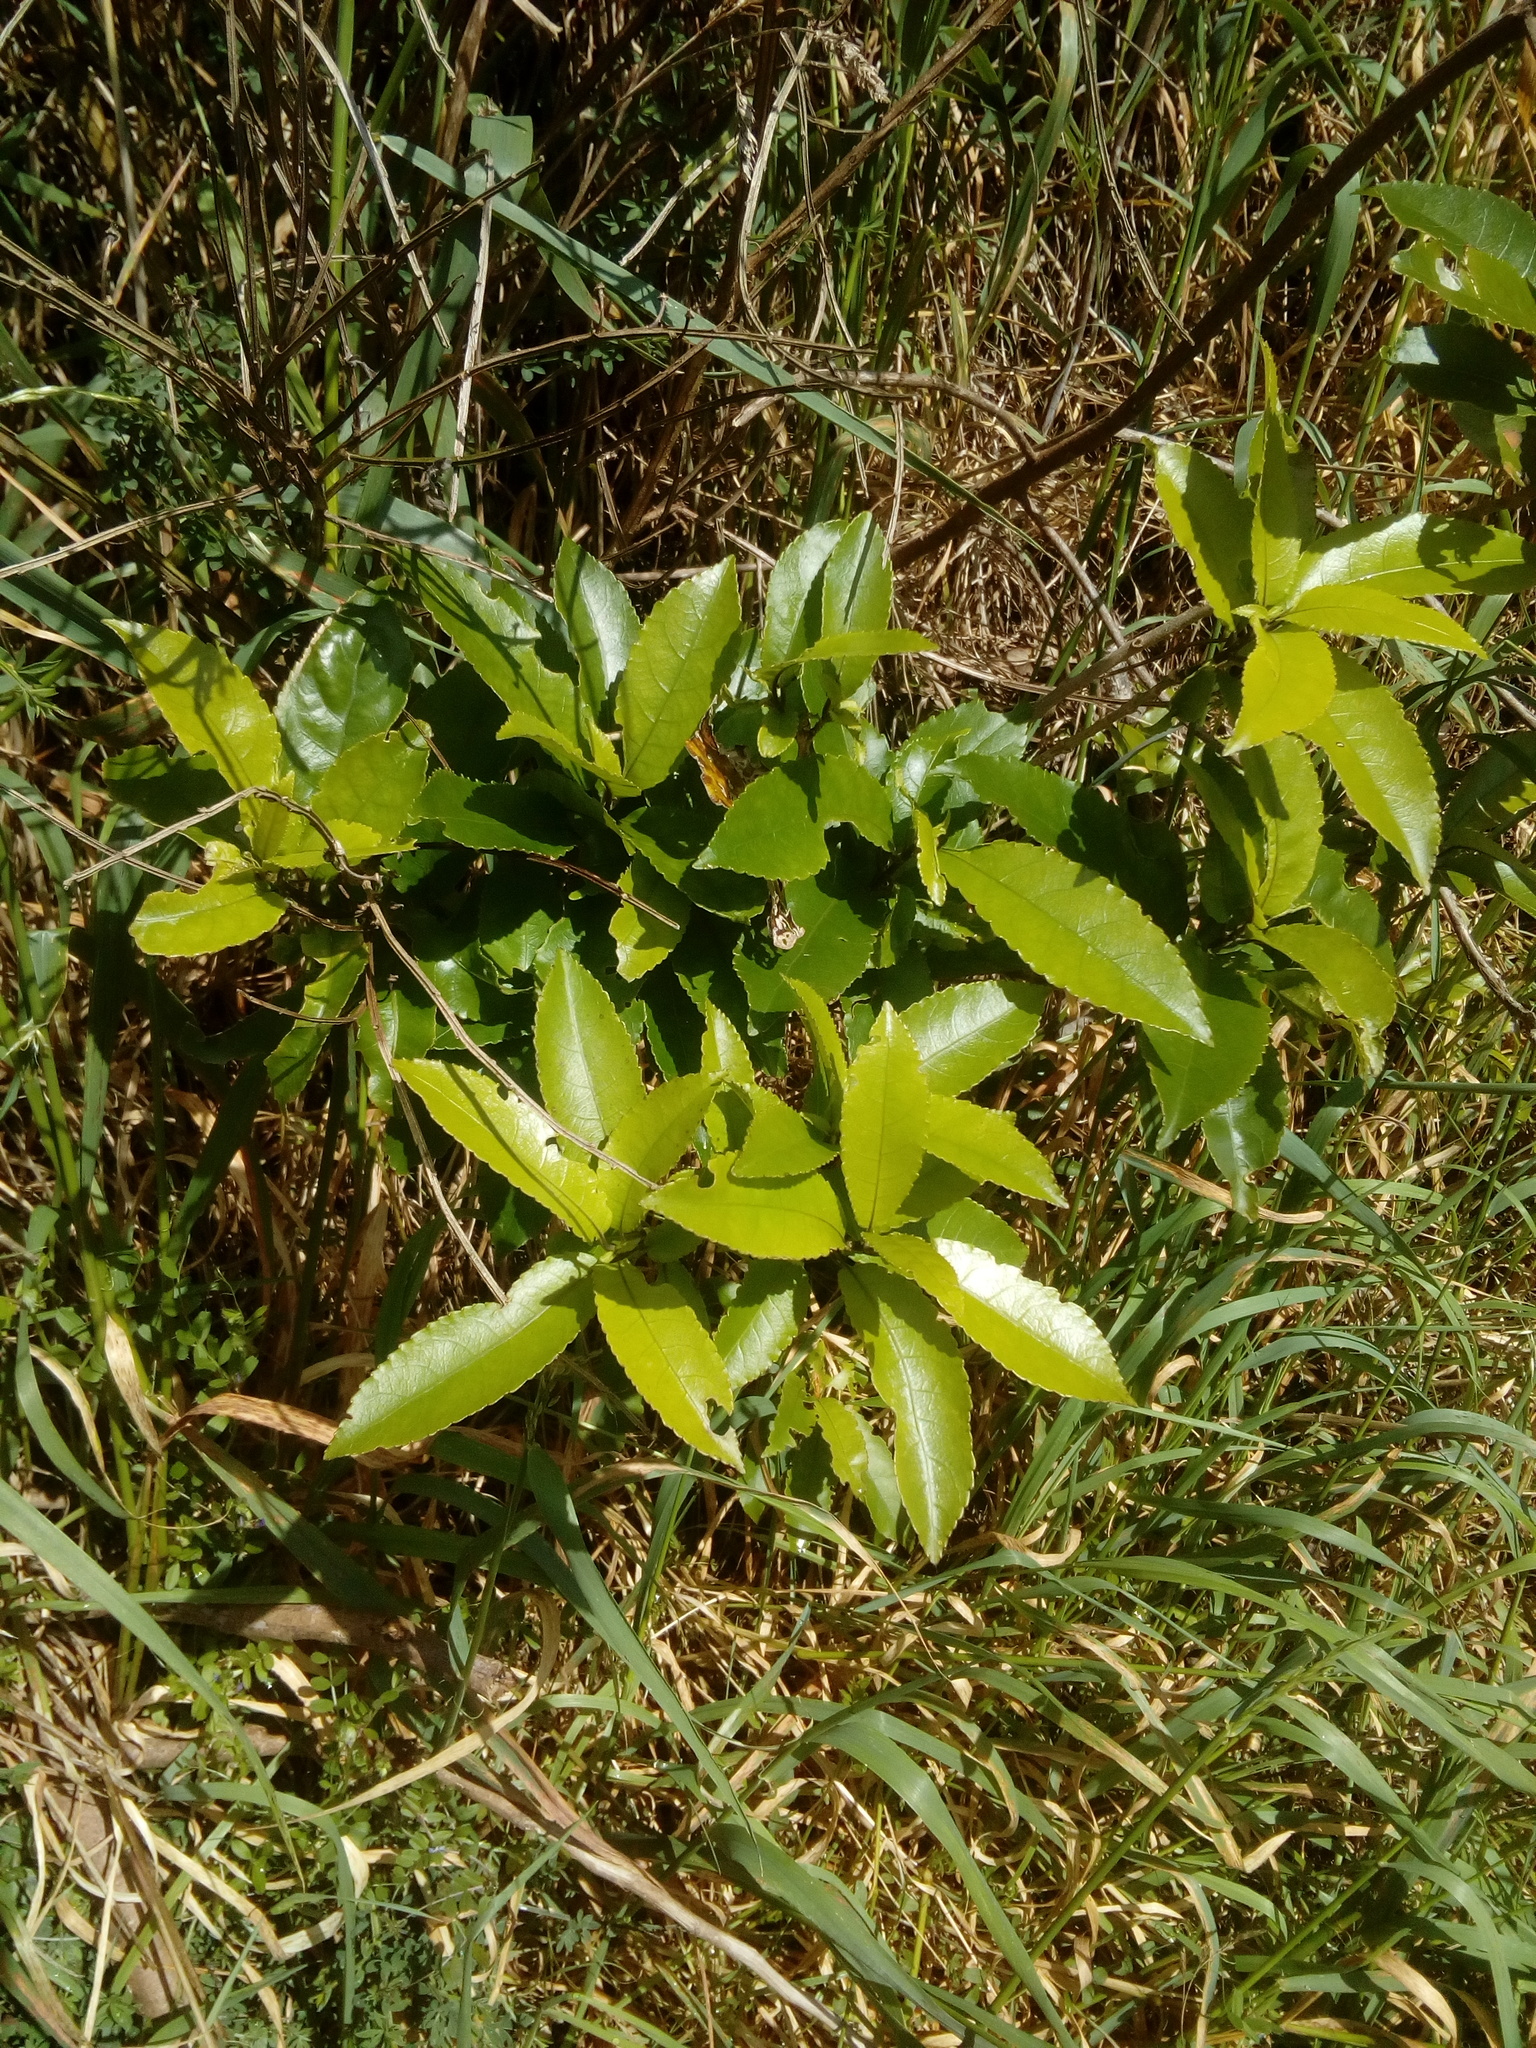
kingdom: Plantae
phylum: Tracheophyta
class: Magnoliopsida
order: Malpighiales
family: Violaceae
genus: Melicytus
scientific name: Melicytus ramiflorus
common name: Mahoe
